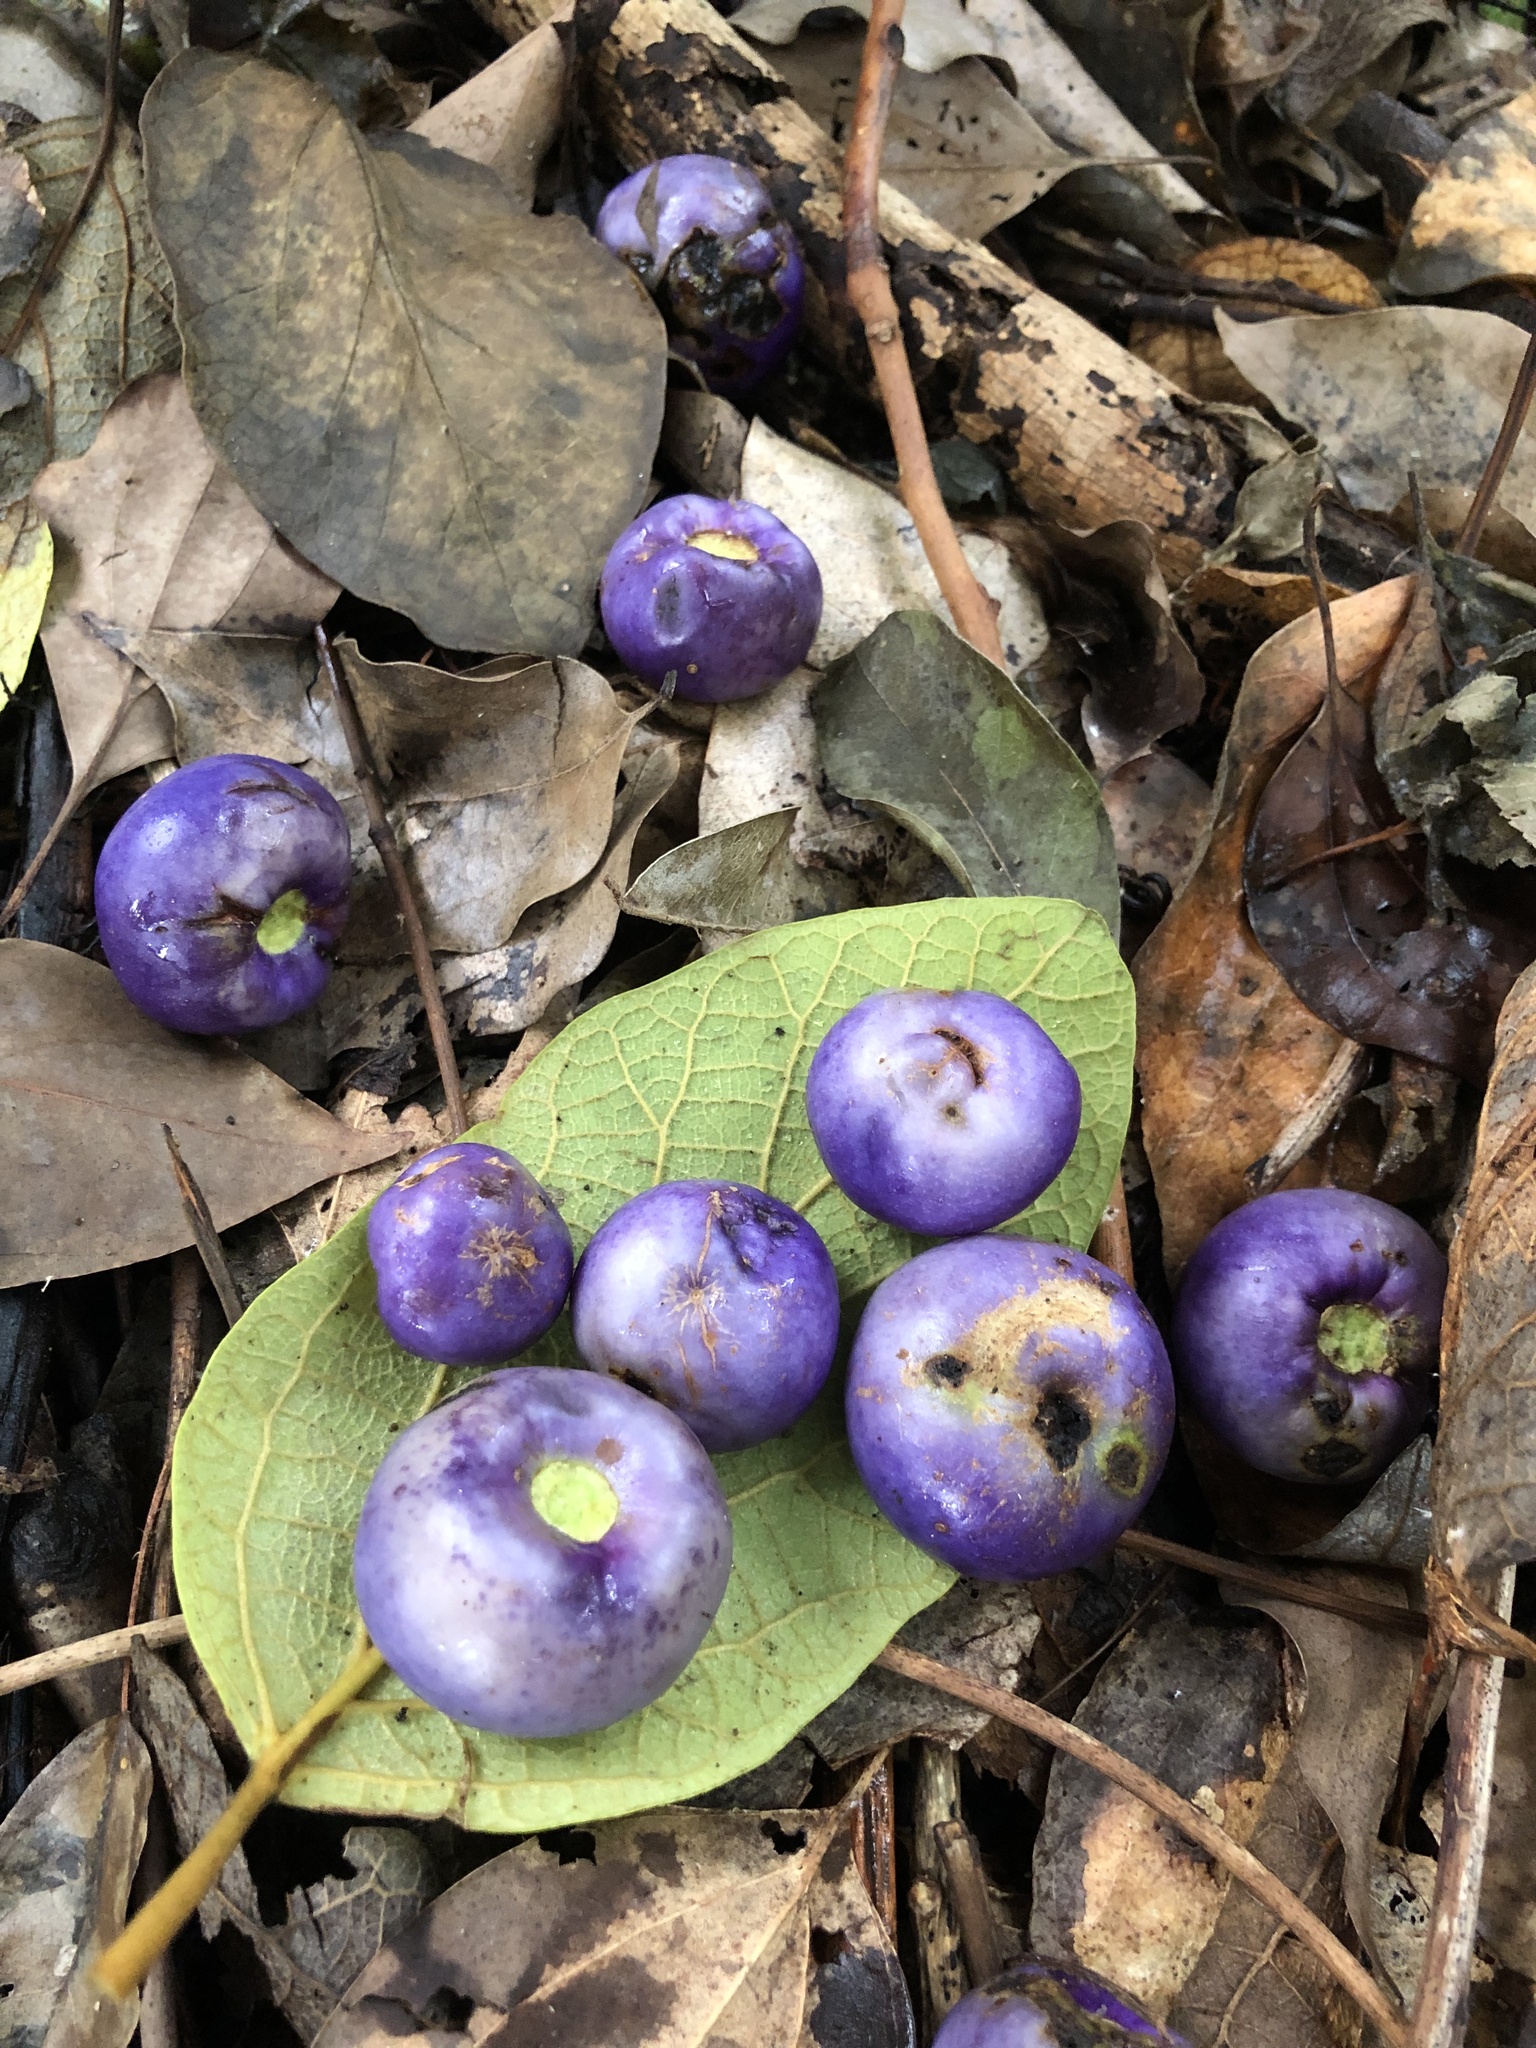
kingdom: Plantae
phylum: Tracheophyta
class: Magnoliopsida
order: Lamiales
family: Lamiaceae
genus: Gmelina
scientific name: Gmelina leichhardtii
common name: Queensland-beech
